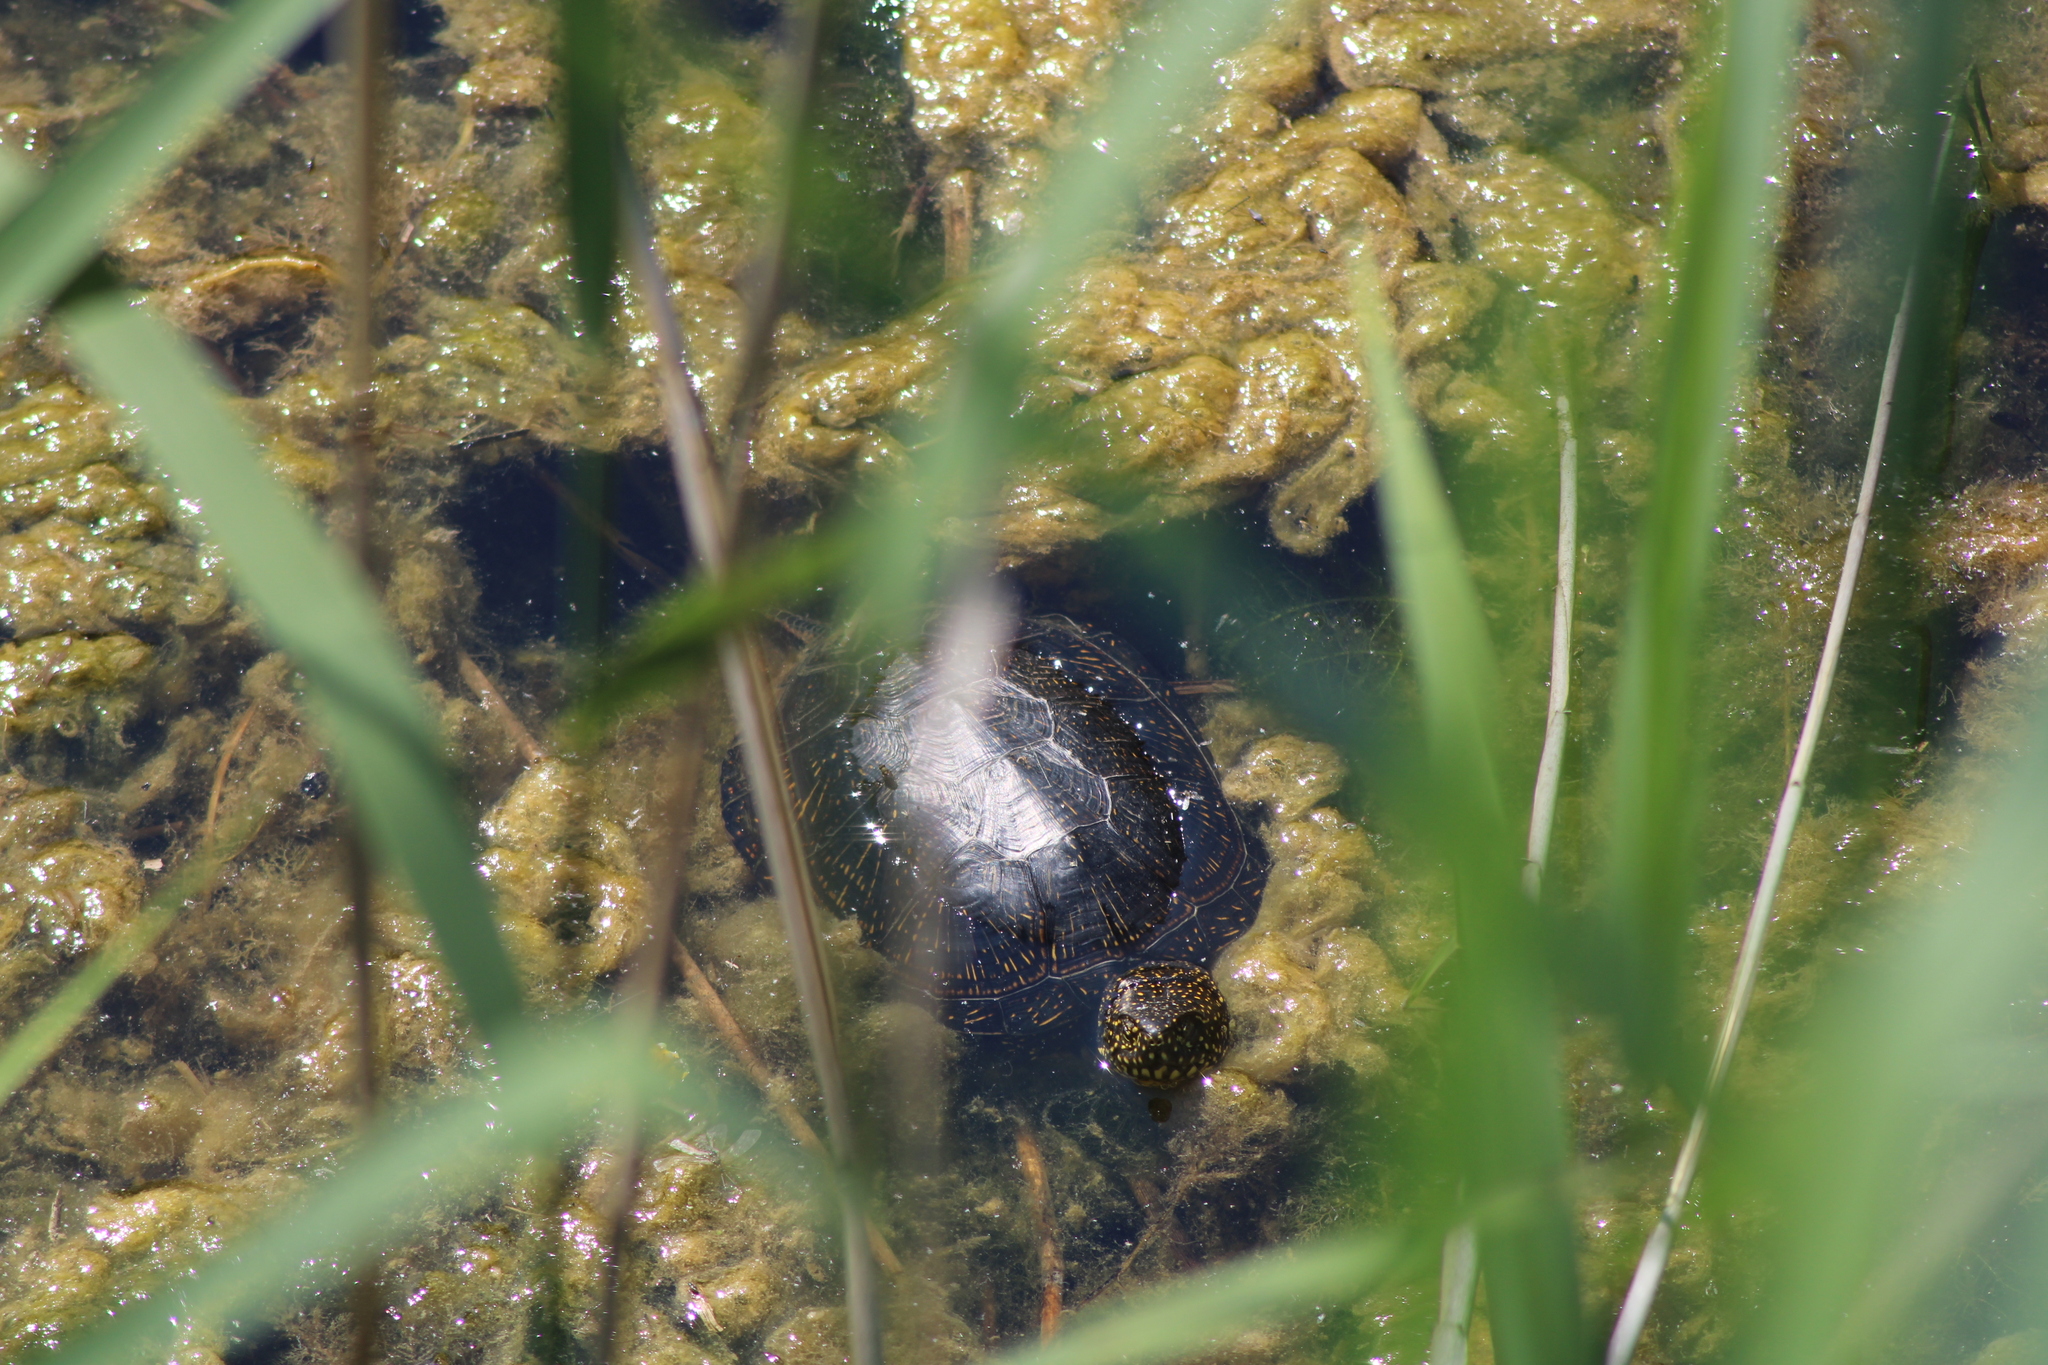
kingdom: Animalia
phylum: Chordata
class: Testudines
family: Emydidae
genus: Emys
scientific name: Emys orbicularis
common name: European pond turtle
